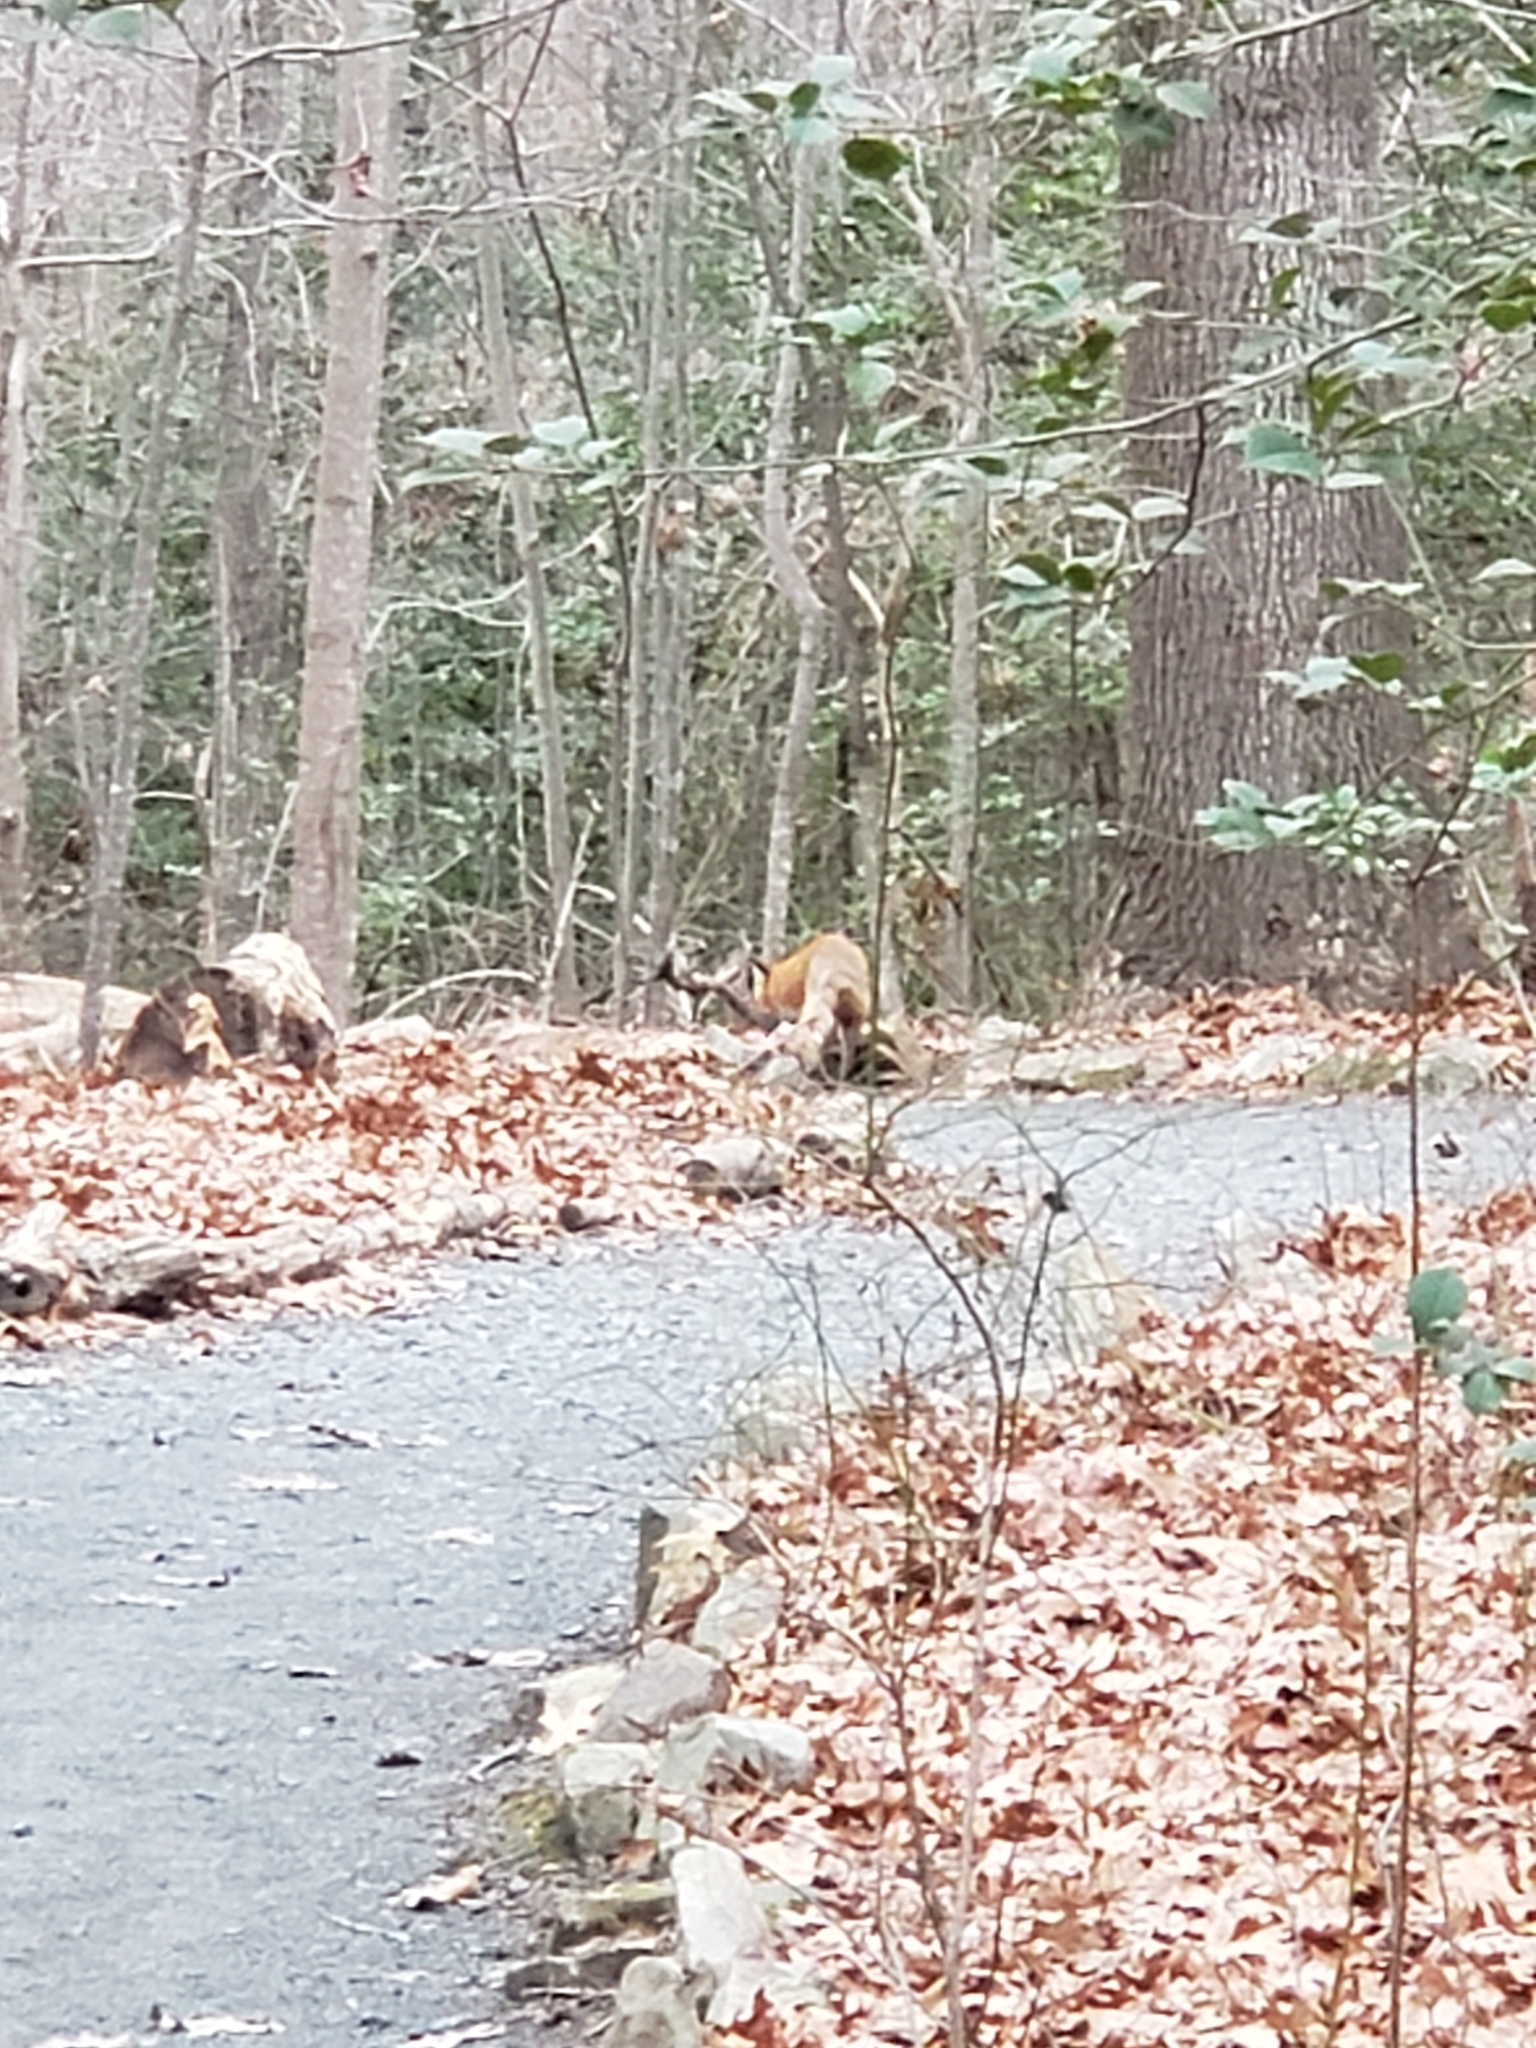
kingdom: Animalia
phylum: Chordata
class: Mammalia
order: Carnivora
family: Canidae
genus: Vulpes
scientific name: Vulpes vulpes
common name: Red fox
